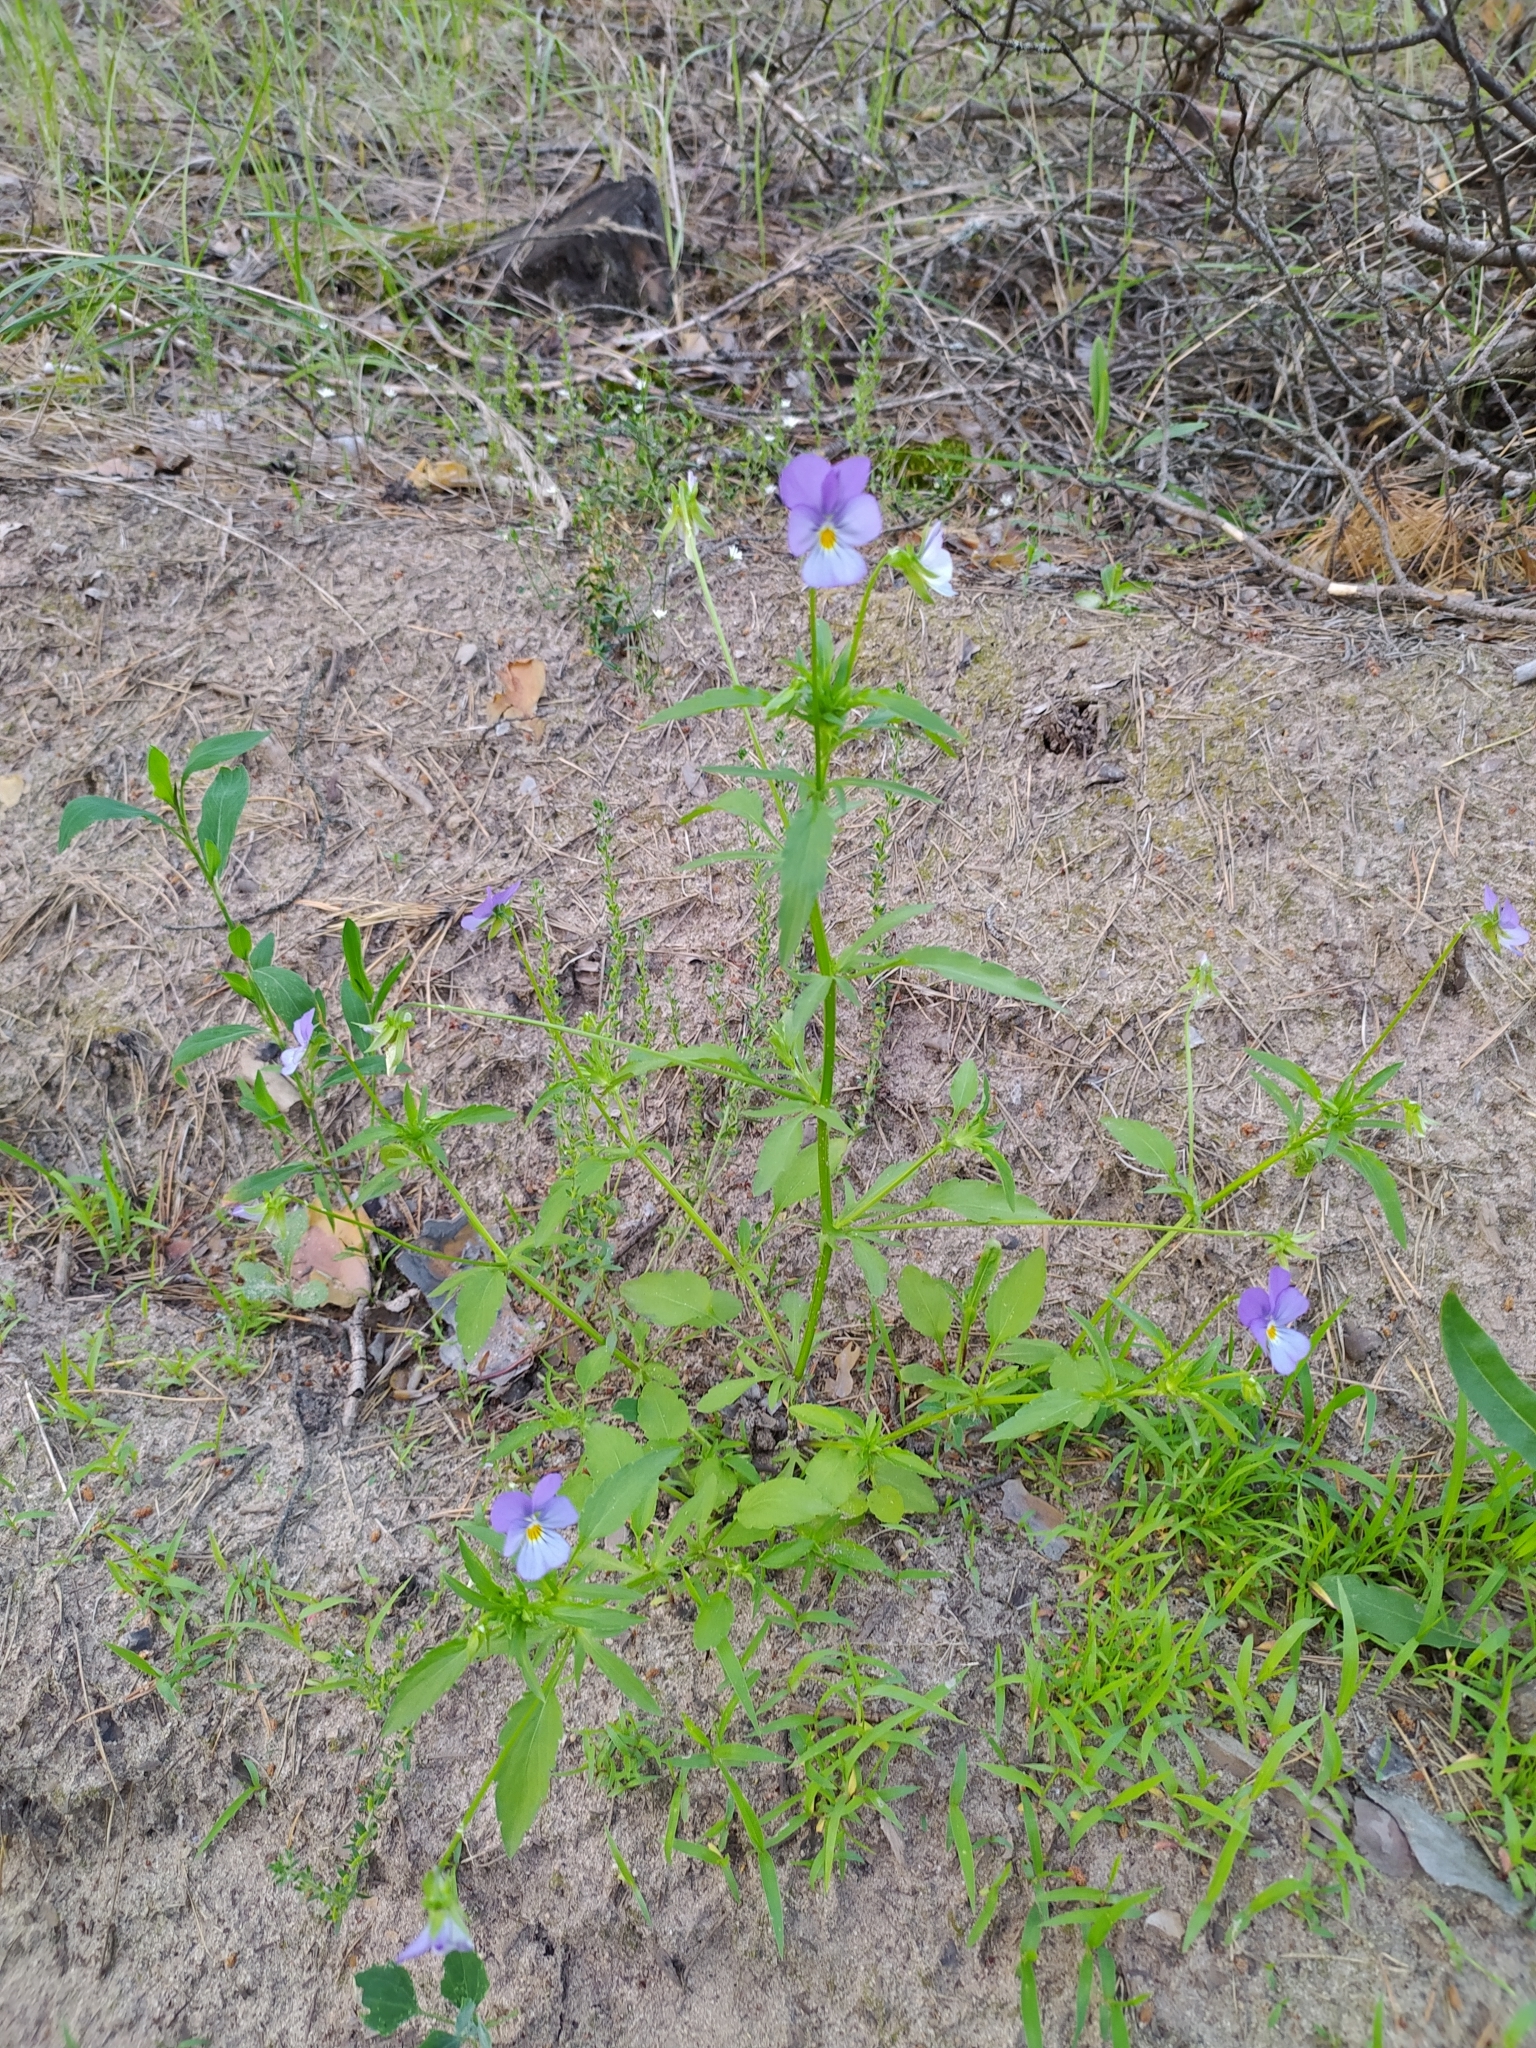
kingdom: Plantae
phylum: Tracheophyta
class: Magnoliopsida
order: Malpighiales
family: Violaceae
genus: Viola
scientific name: Viola tricolor
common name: Pansy
